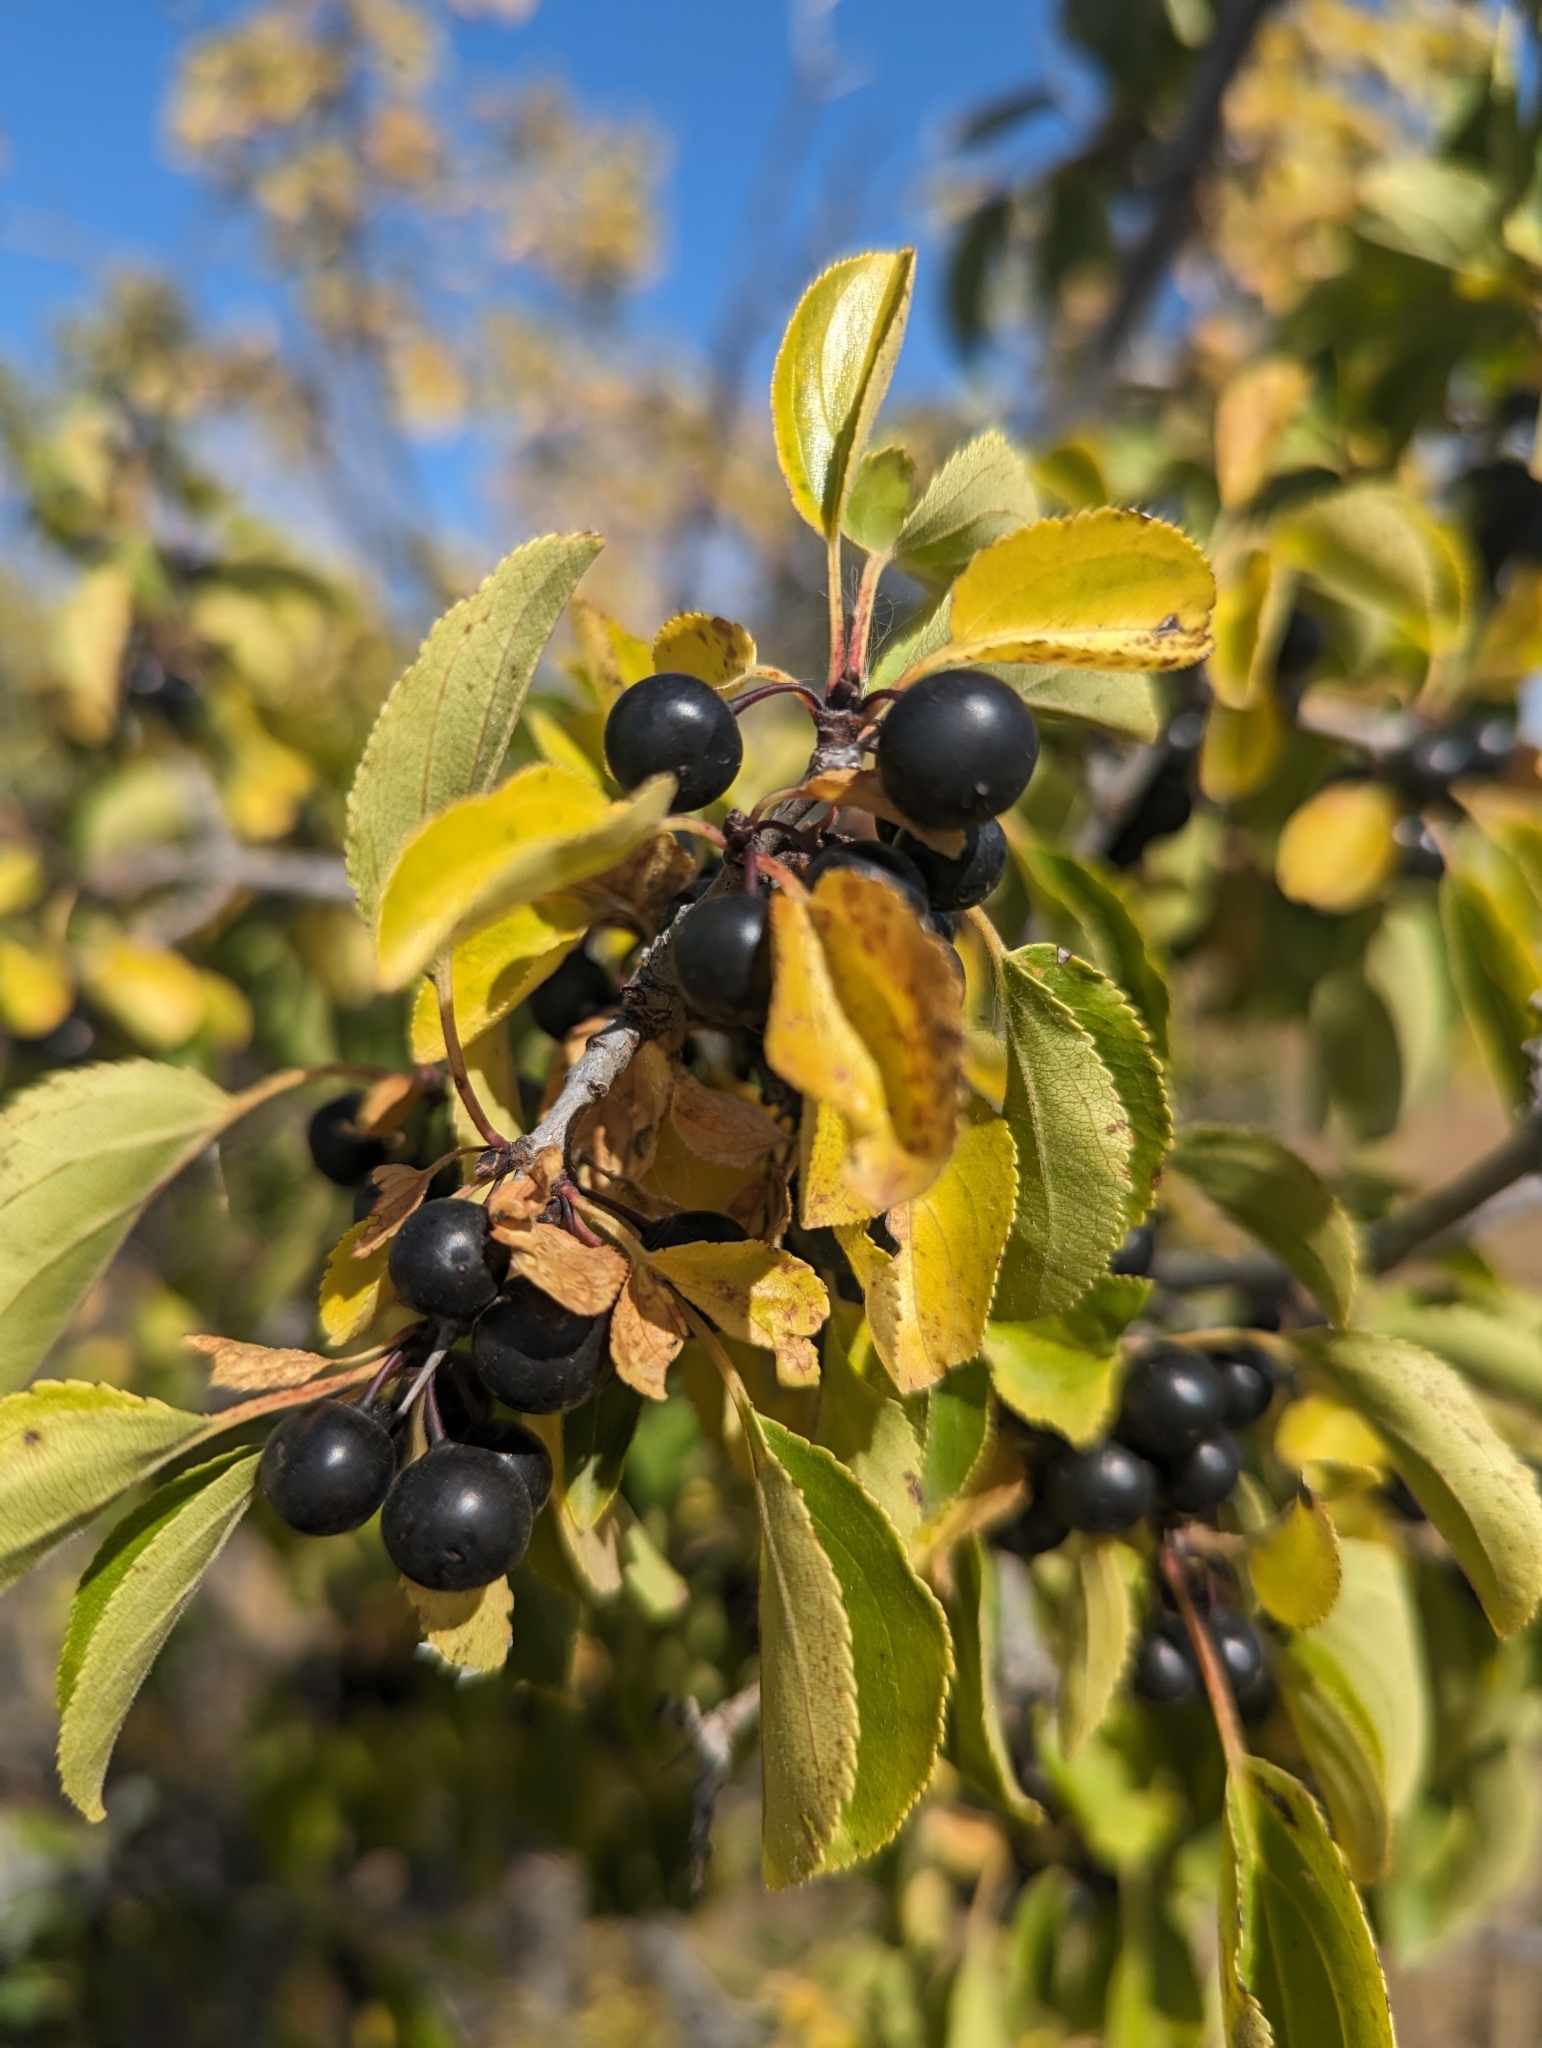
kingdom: Plantae
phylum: Tracheophyta
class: Magnoliopsida
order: Rosales
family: Rhamnaceae
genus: Rhamnus
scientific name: Rhamnus cathartica
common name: Common buckthorn
